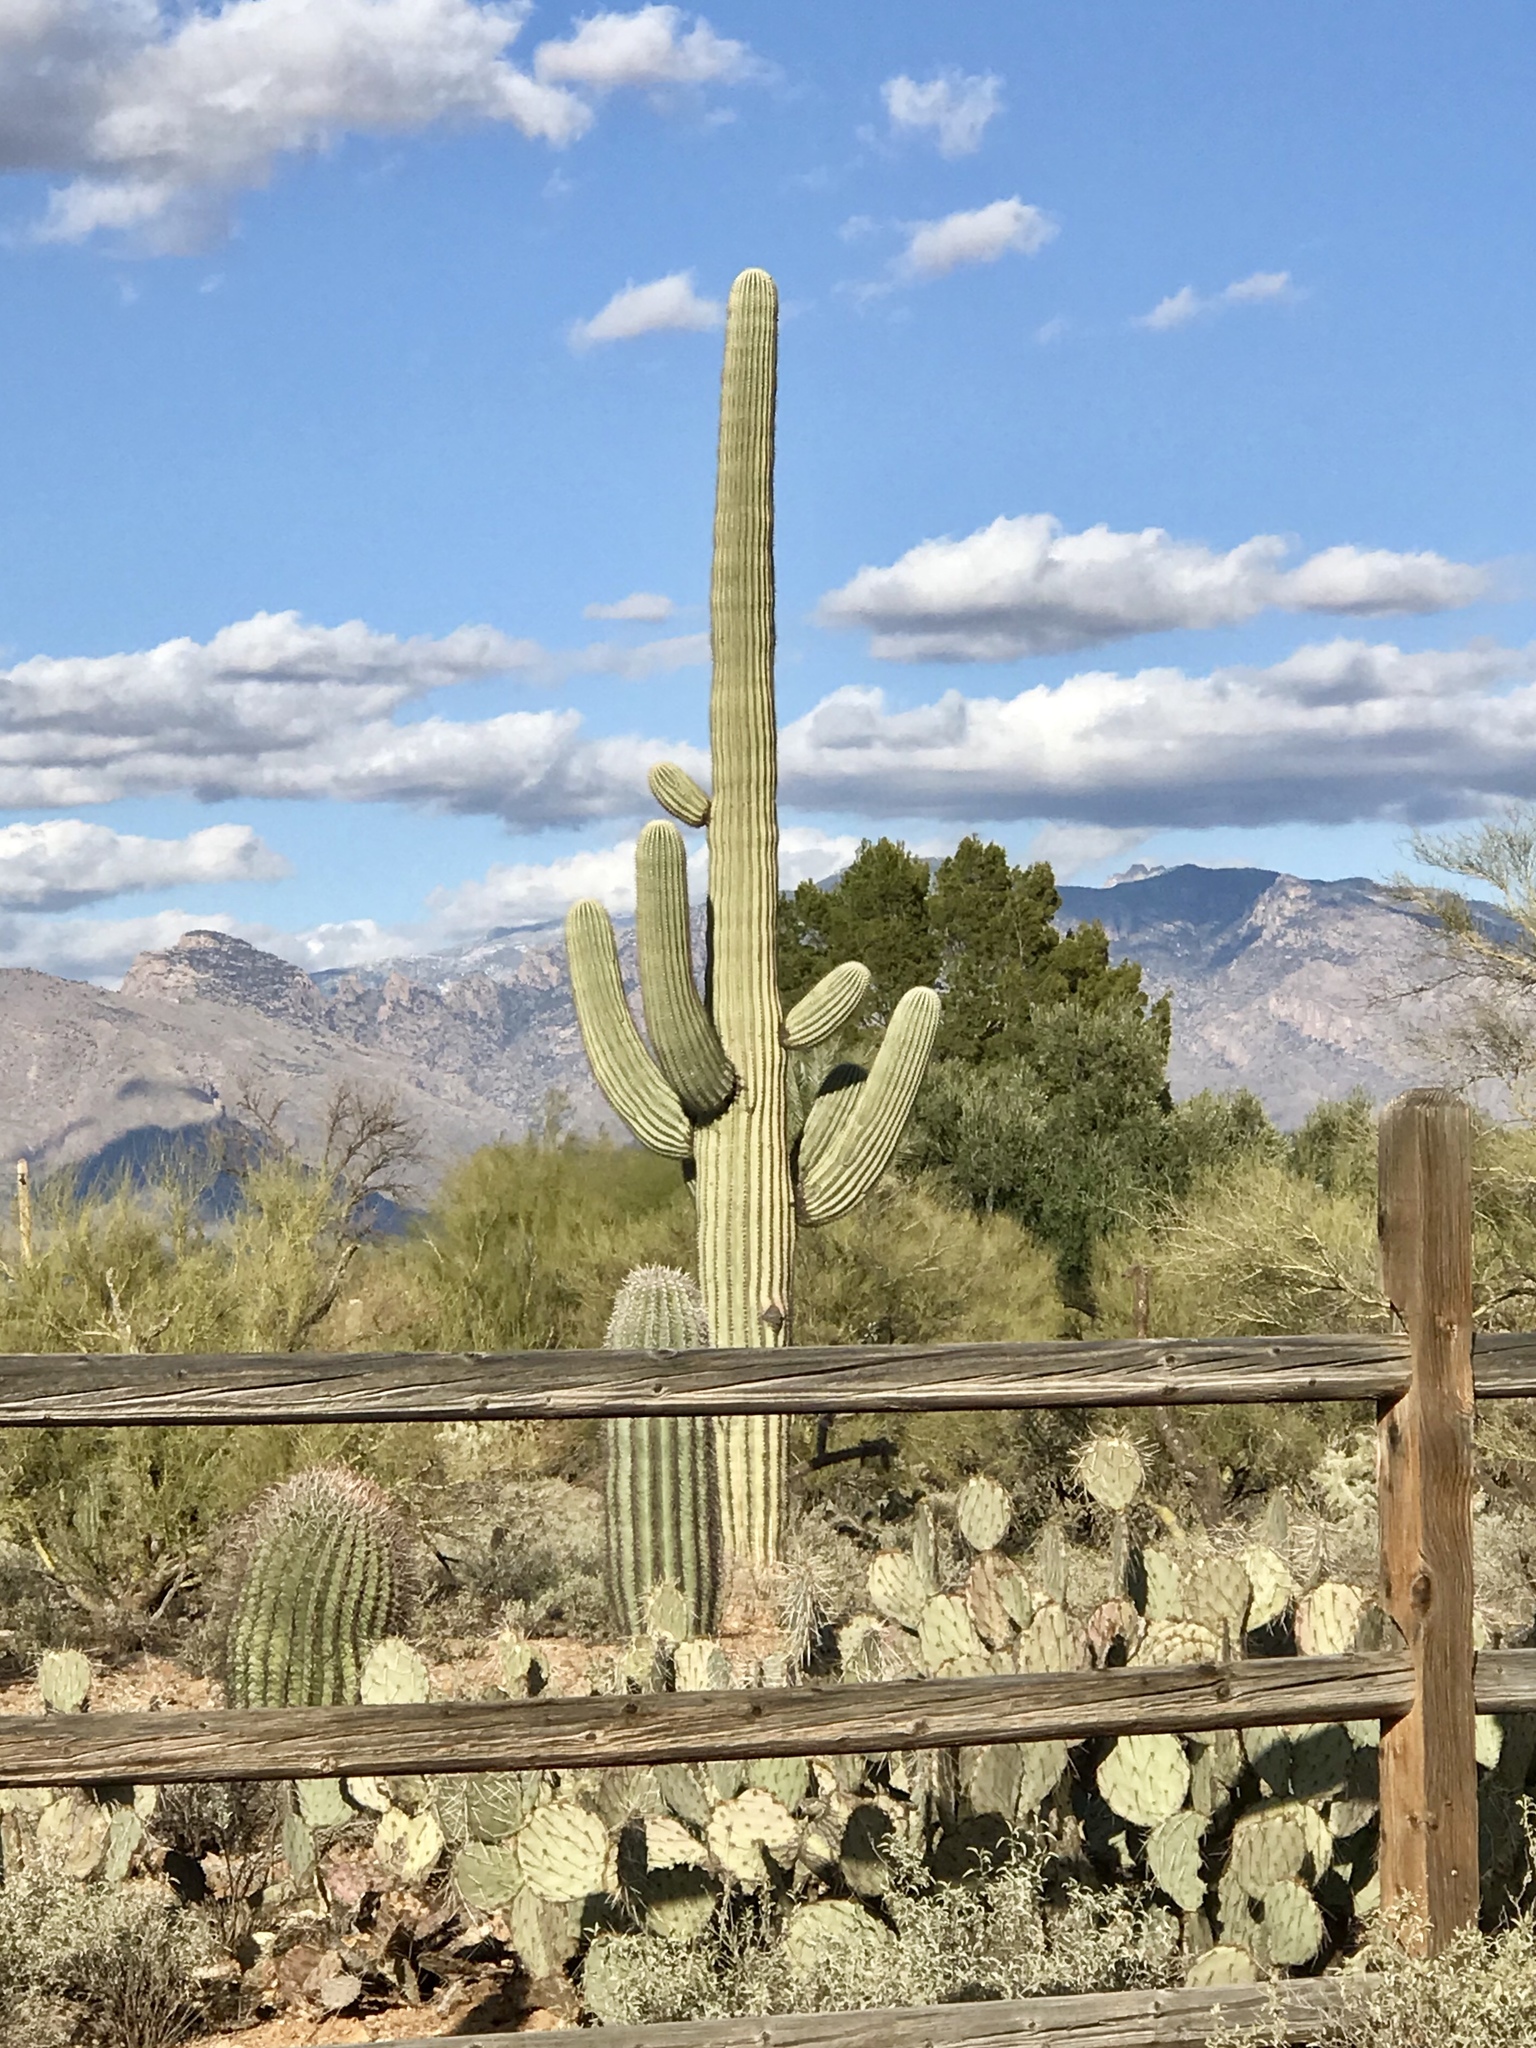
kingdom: Plantae
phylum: Tracheophyta
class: Magnoliopsida
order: Caryophyllales
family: Cactaceae
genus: Carnegiea
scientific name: Carnegiea gigantea
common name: Saguaro
